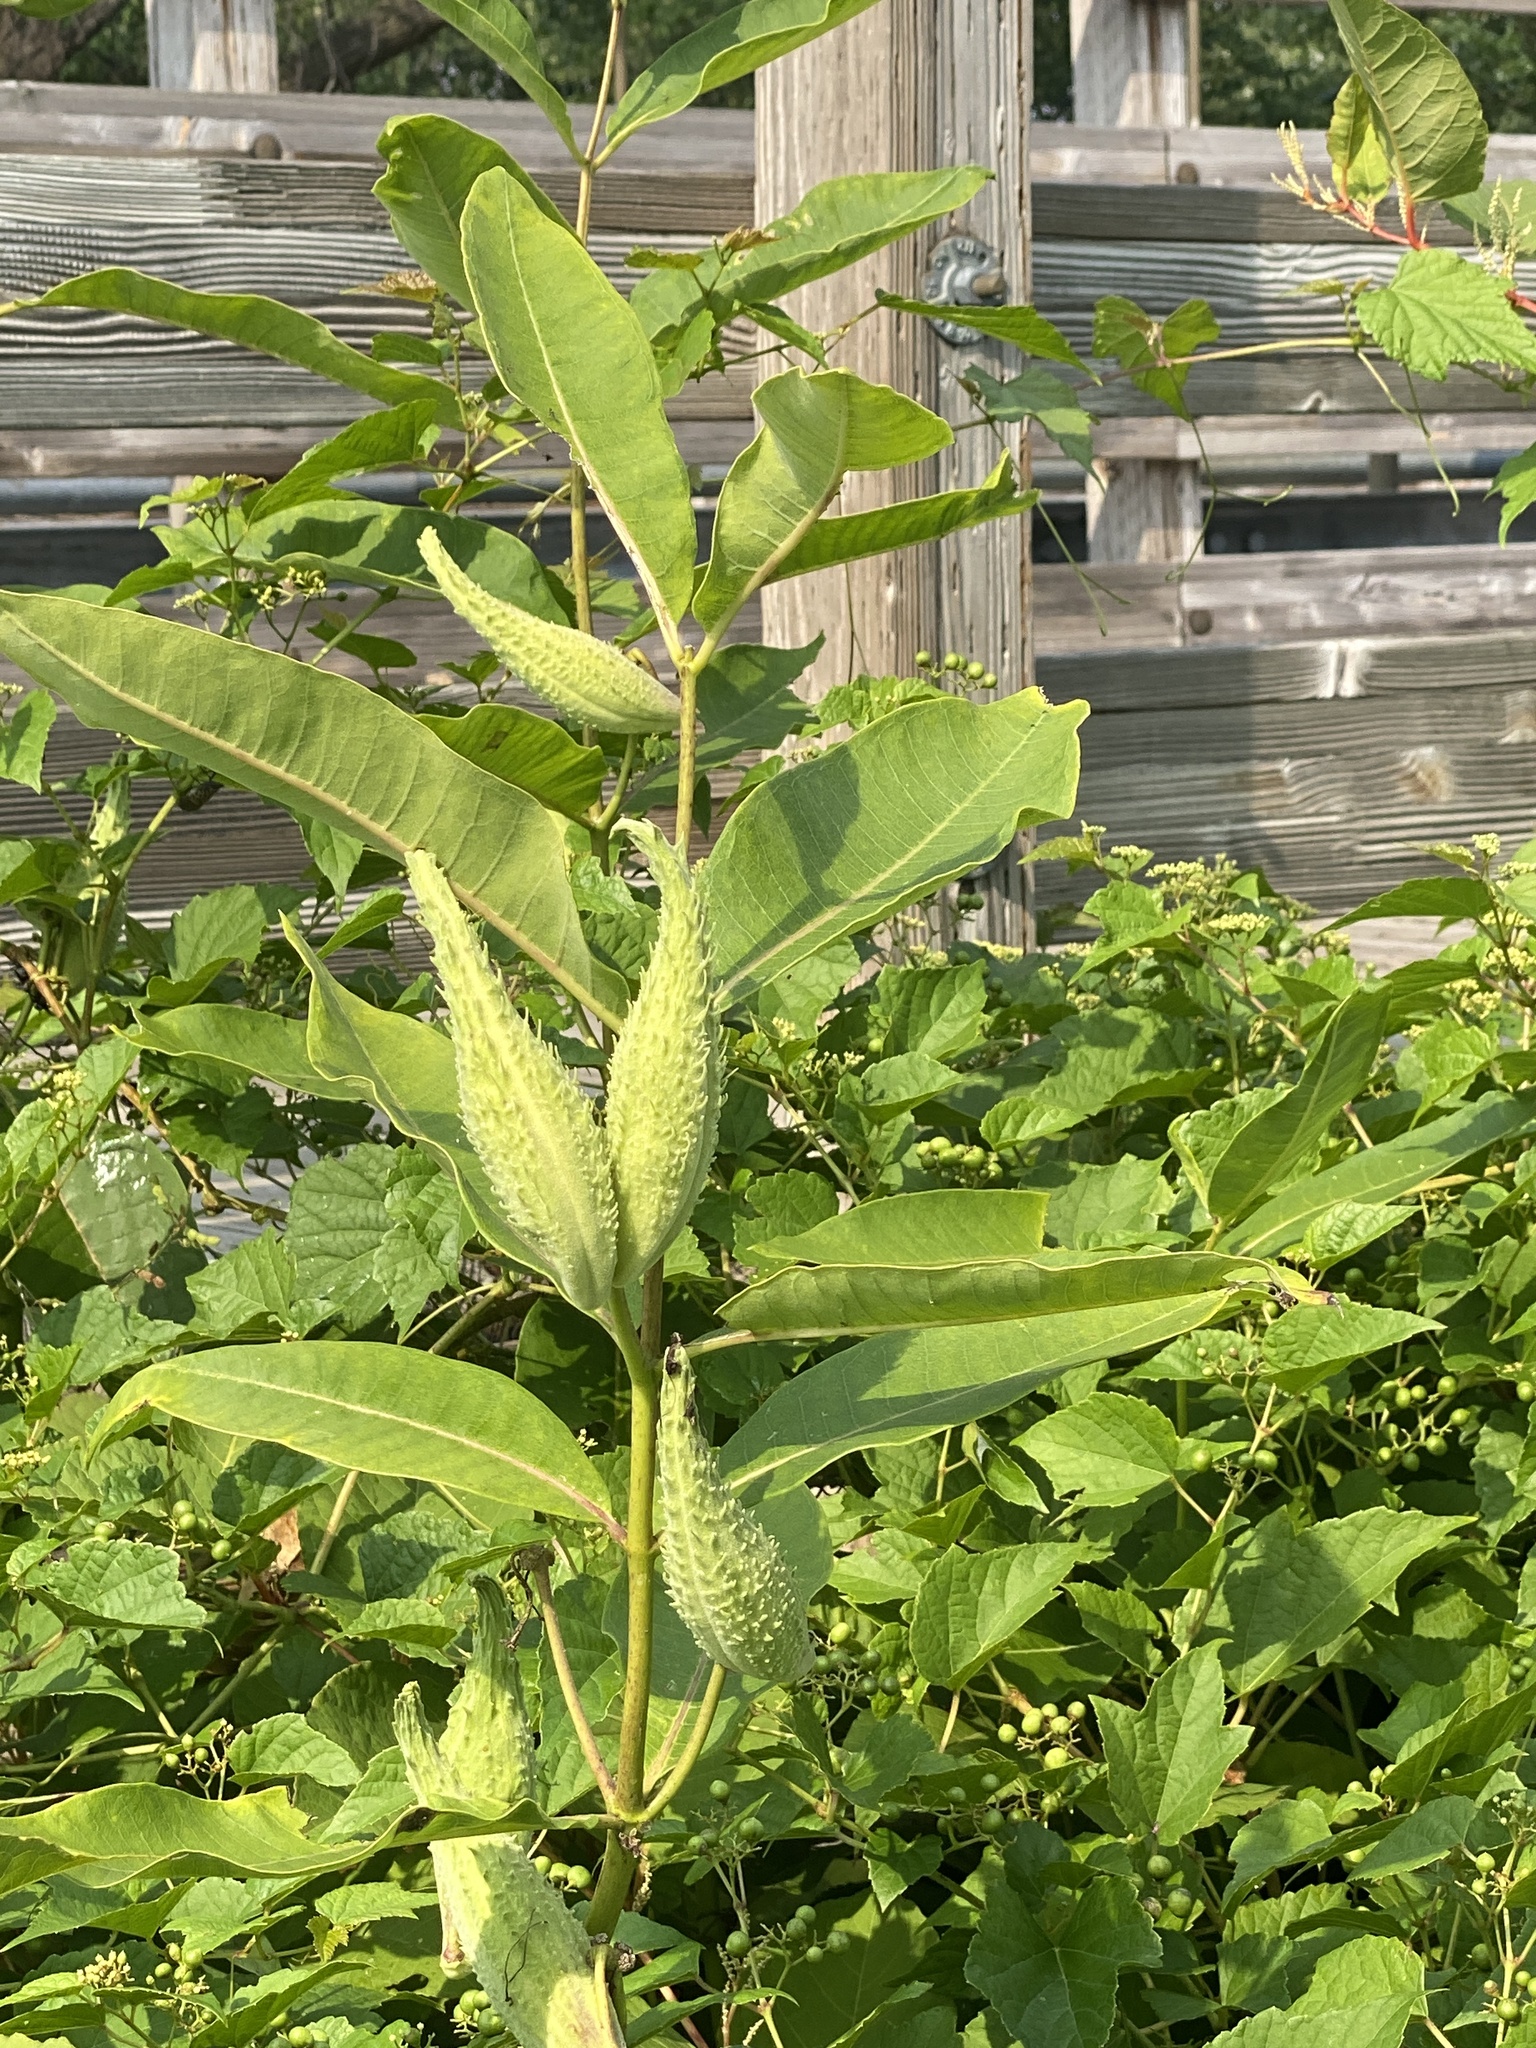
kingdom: Plantae
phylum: Tracheophyta
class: Magnoliopsida
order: Gentianales
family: Apocynaceae
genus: Asclepias
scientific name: Asclepias syriaca
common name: Common milkweed
